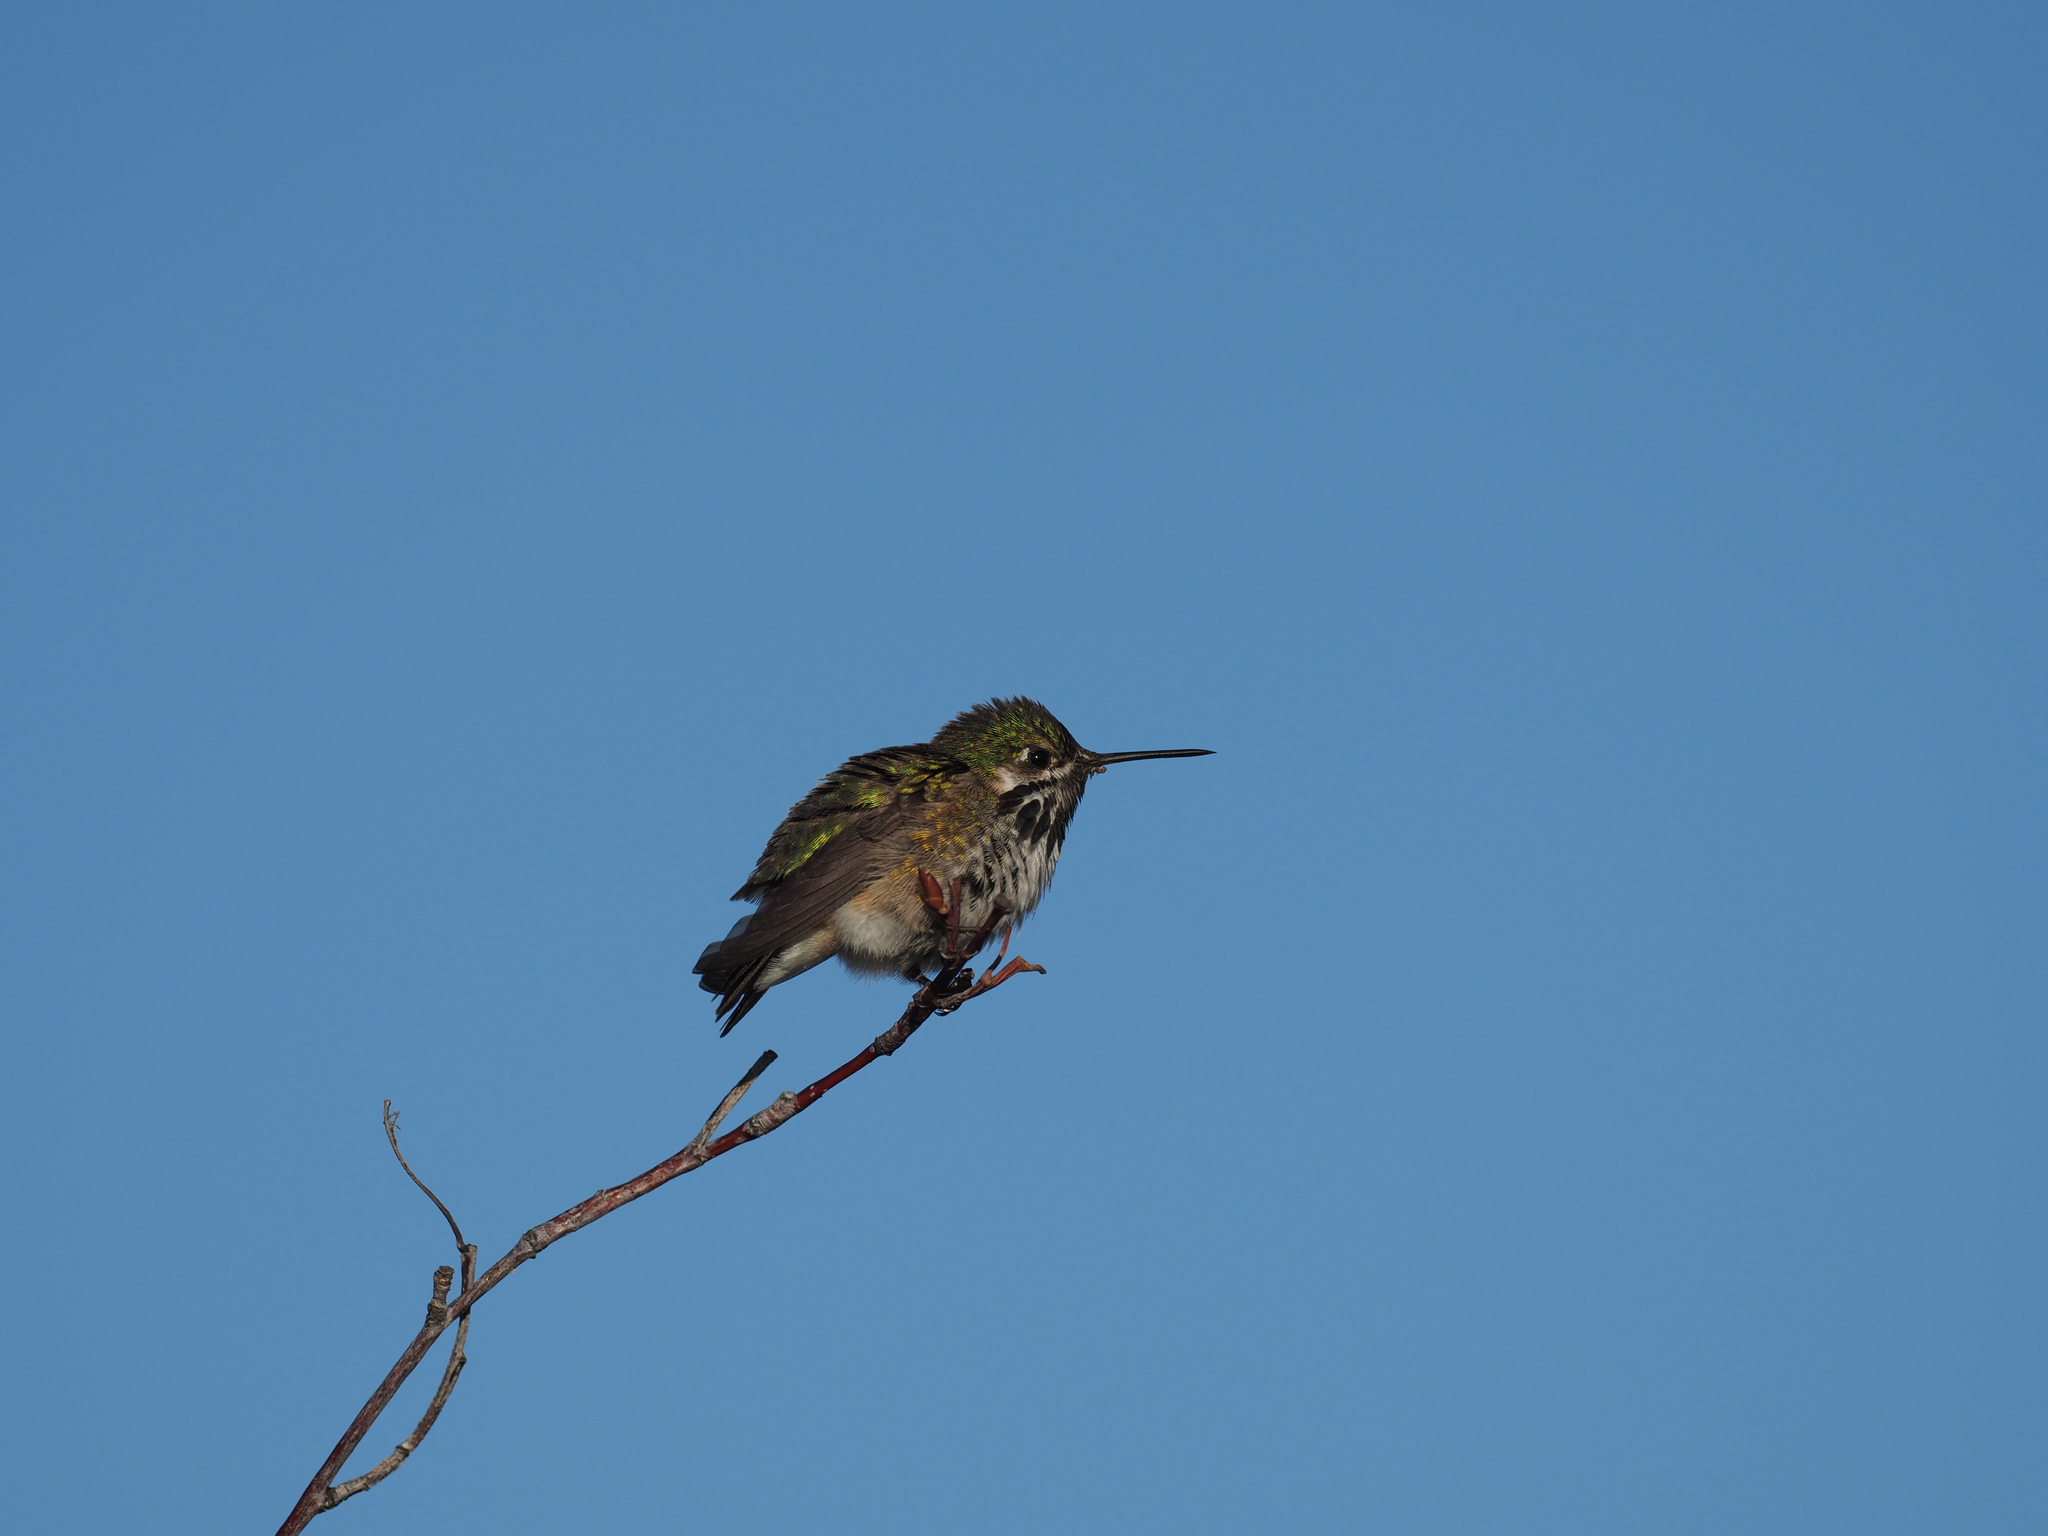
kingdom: Animalia
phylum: Chordata
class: Aves
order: Apodiformes
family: Trochilidae
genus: Selasphorus
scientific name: Selasphorus calliope
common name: Calliope hummingbird
